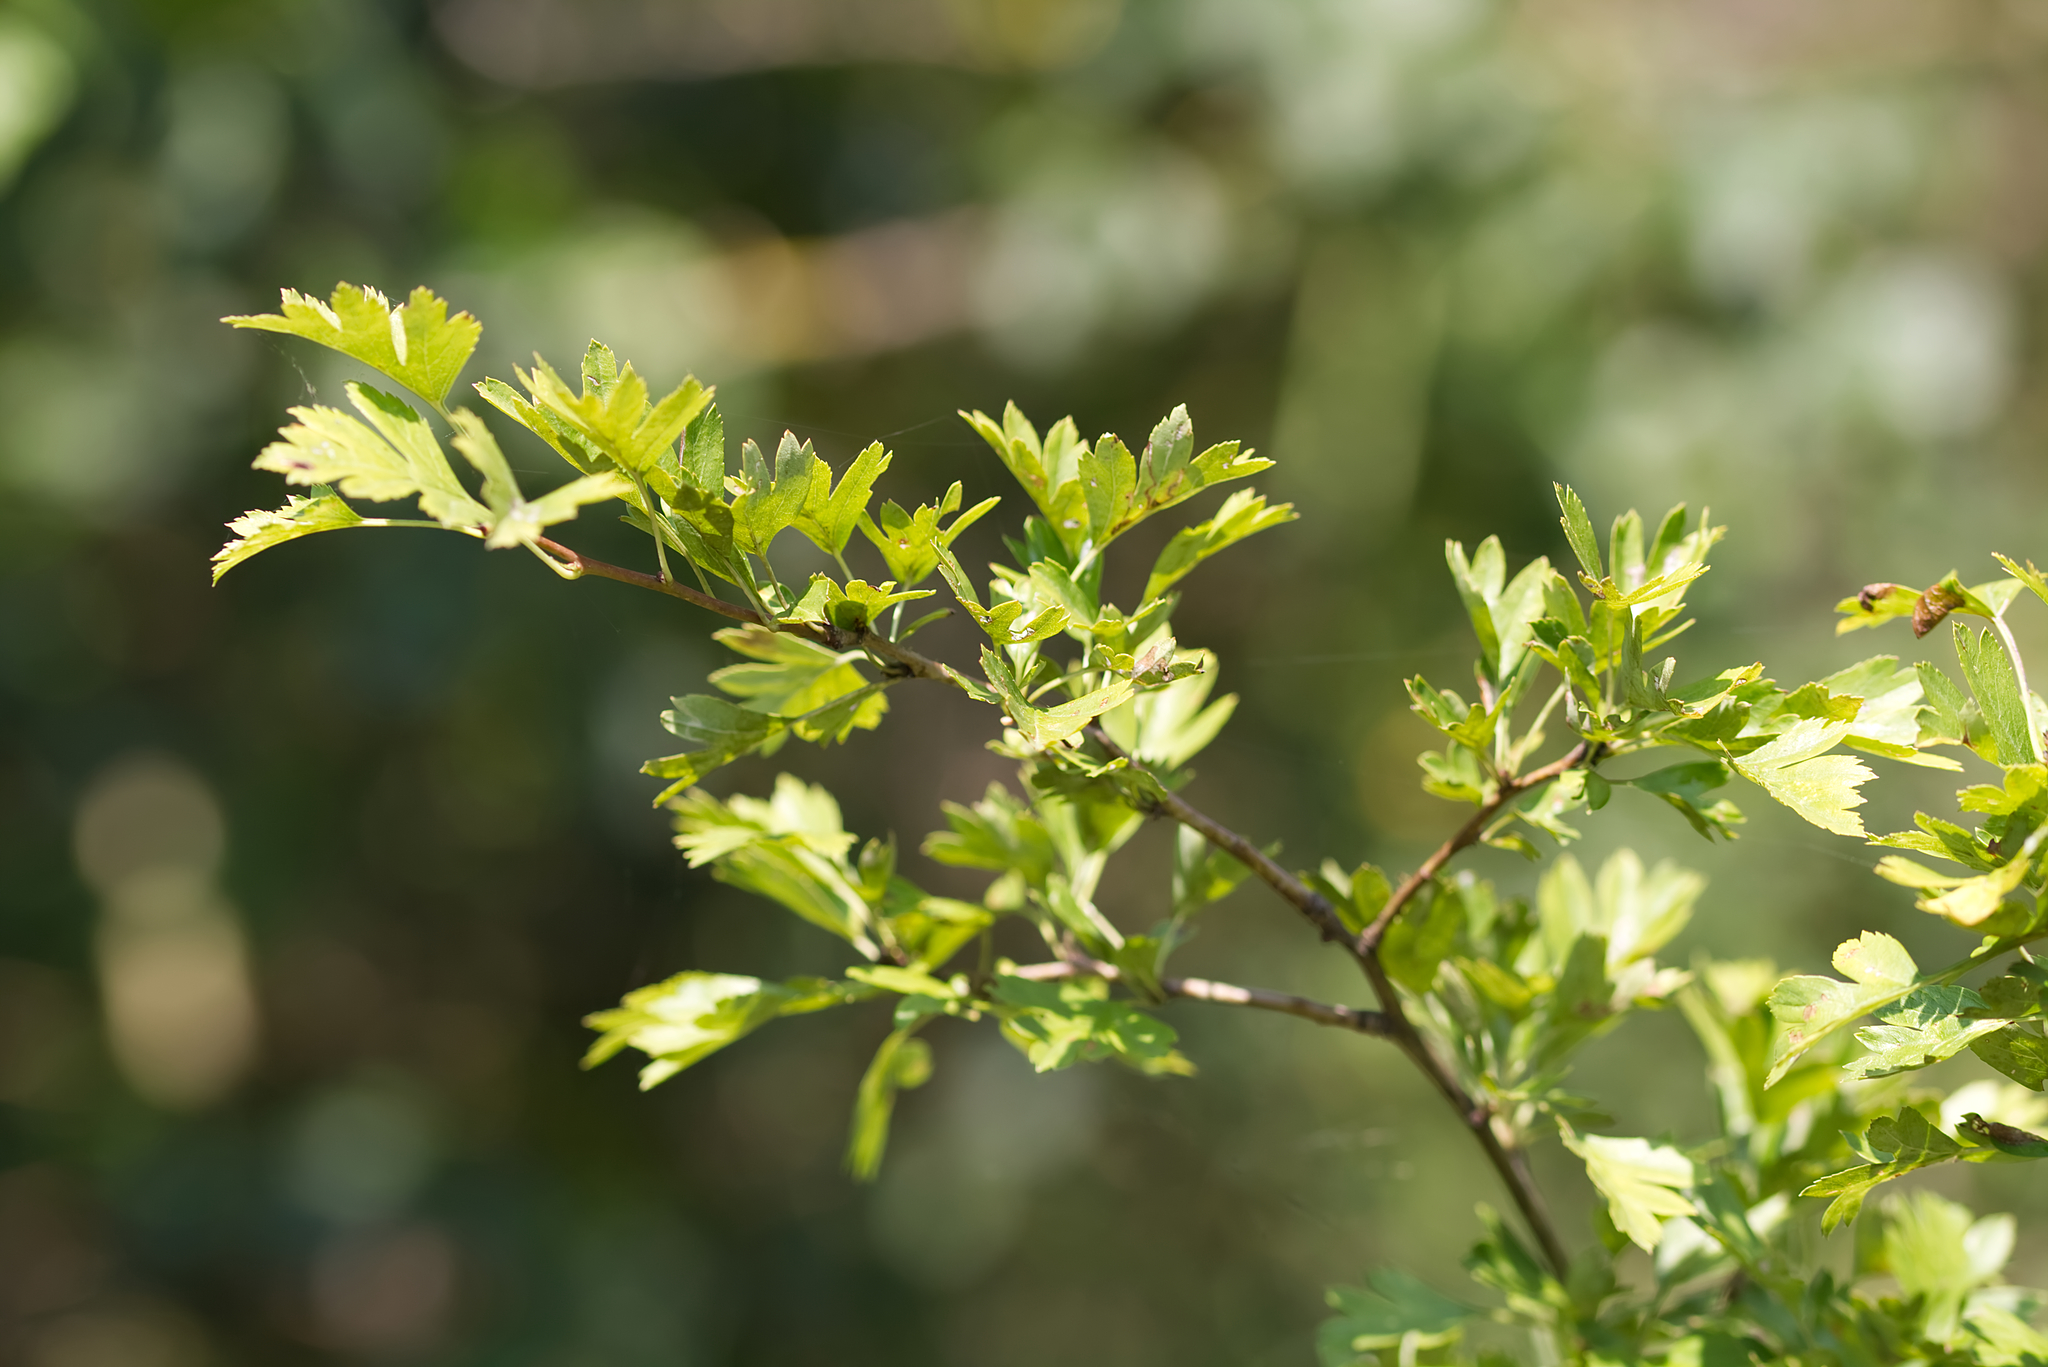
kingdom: Plantae
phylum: Tracheophyta
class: Magnoliopsida
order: Rosales
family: Rosaceae
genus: Crataegus
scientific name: Crataegus monogyna
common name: Hawthorn
